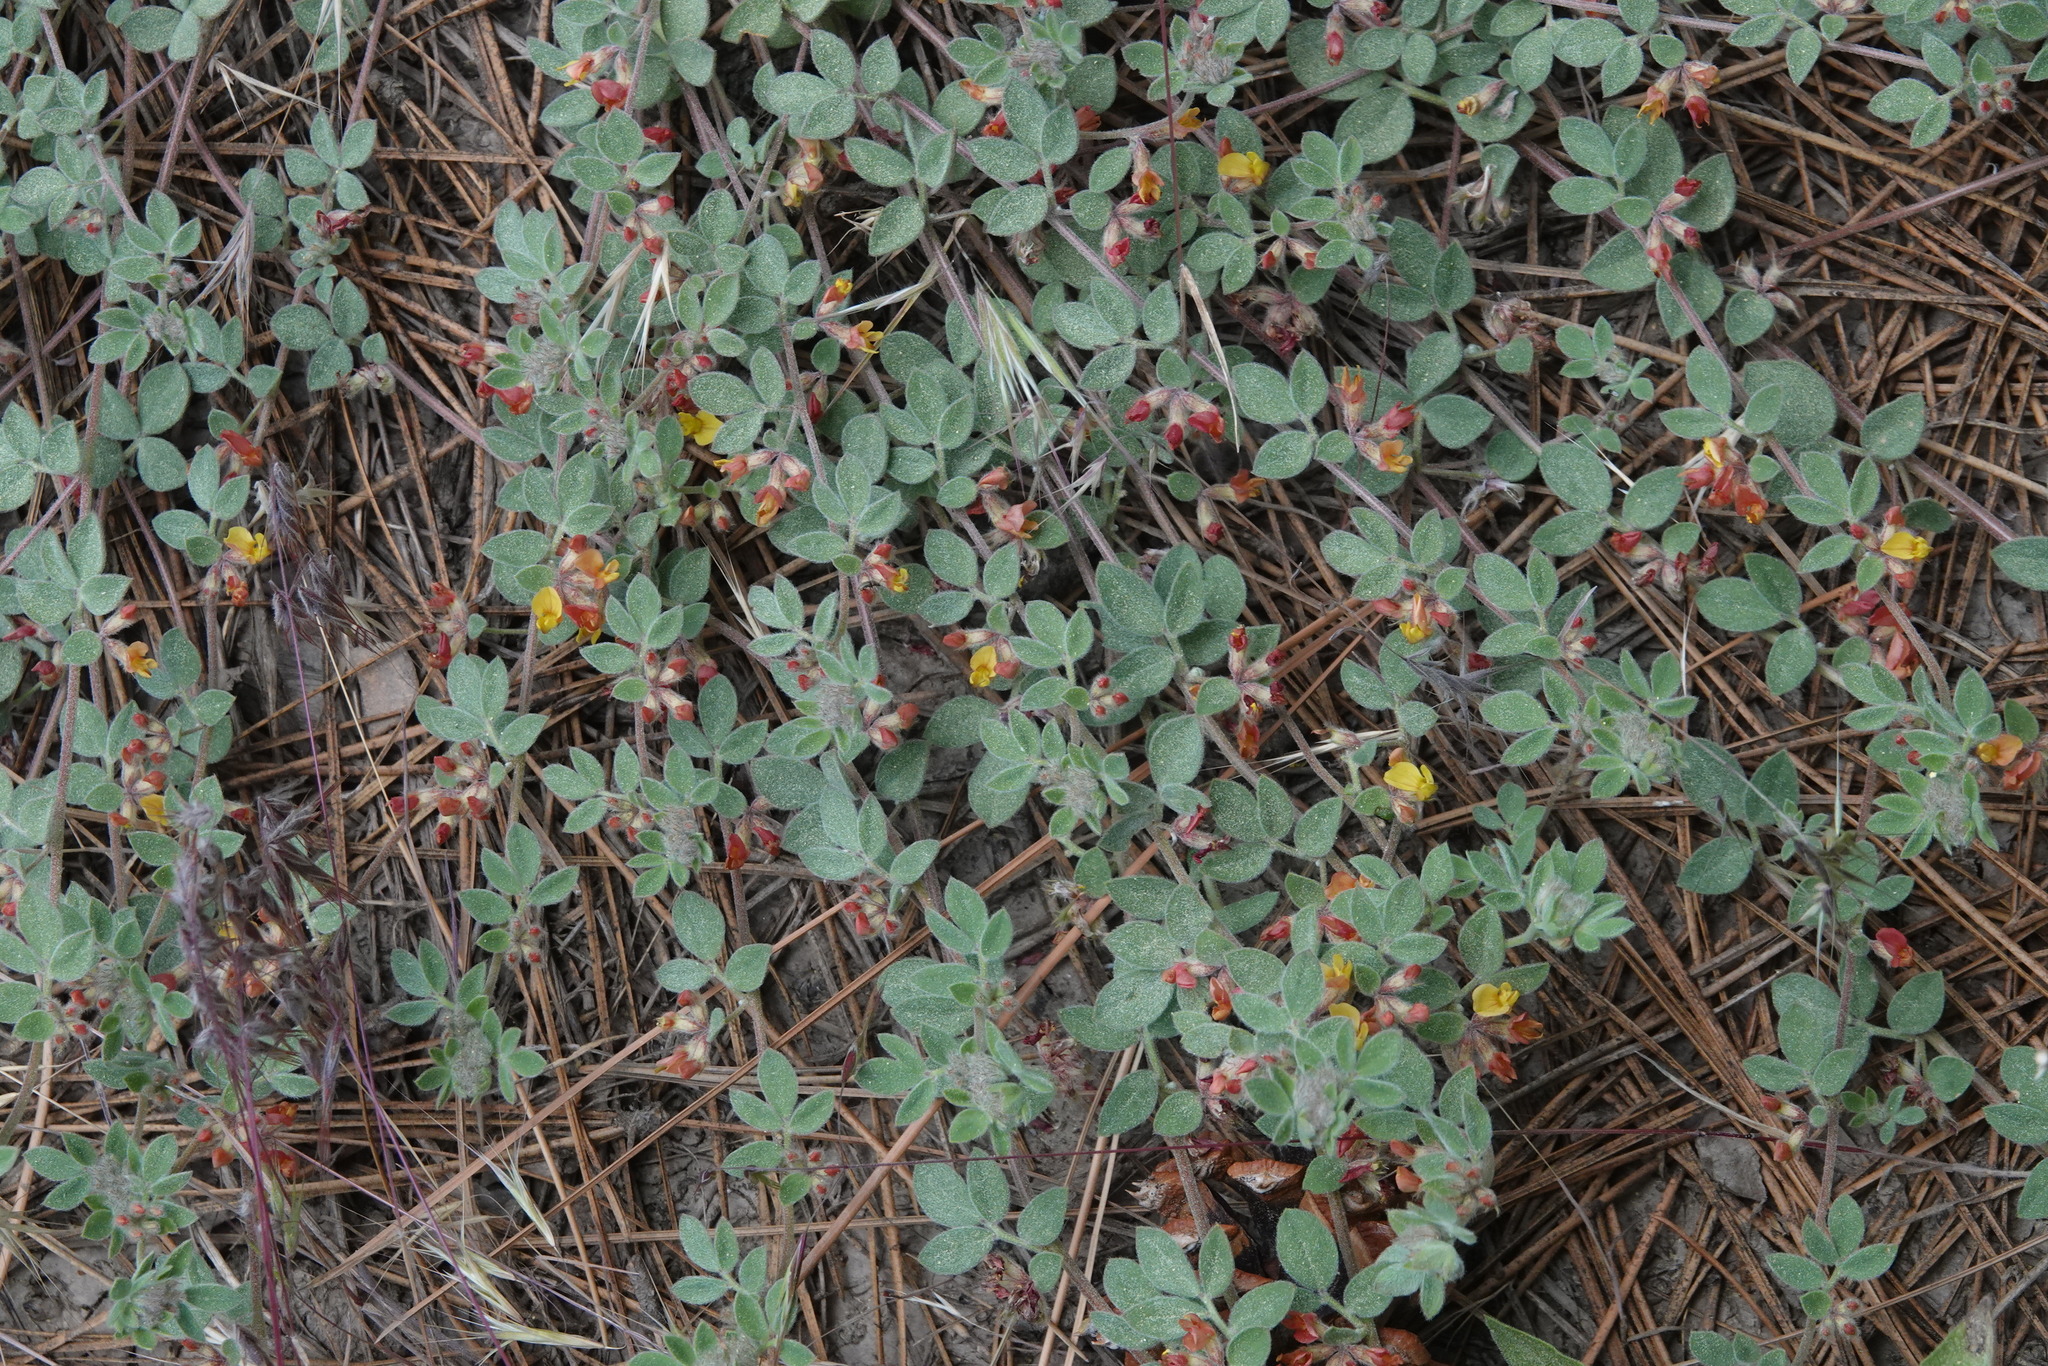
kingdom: Plantae
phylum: Tracheophyta
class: Magnoliopsida
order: Fabales
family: Fabaceae
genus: Acmispon
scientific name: Acmispon decumbens
